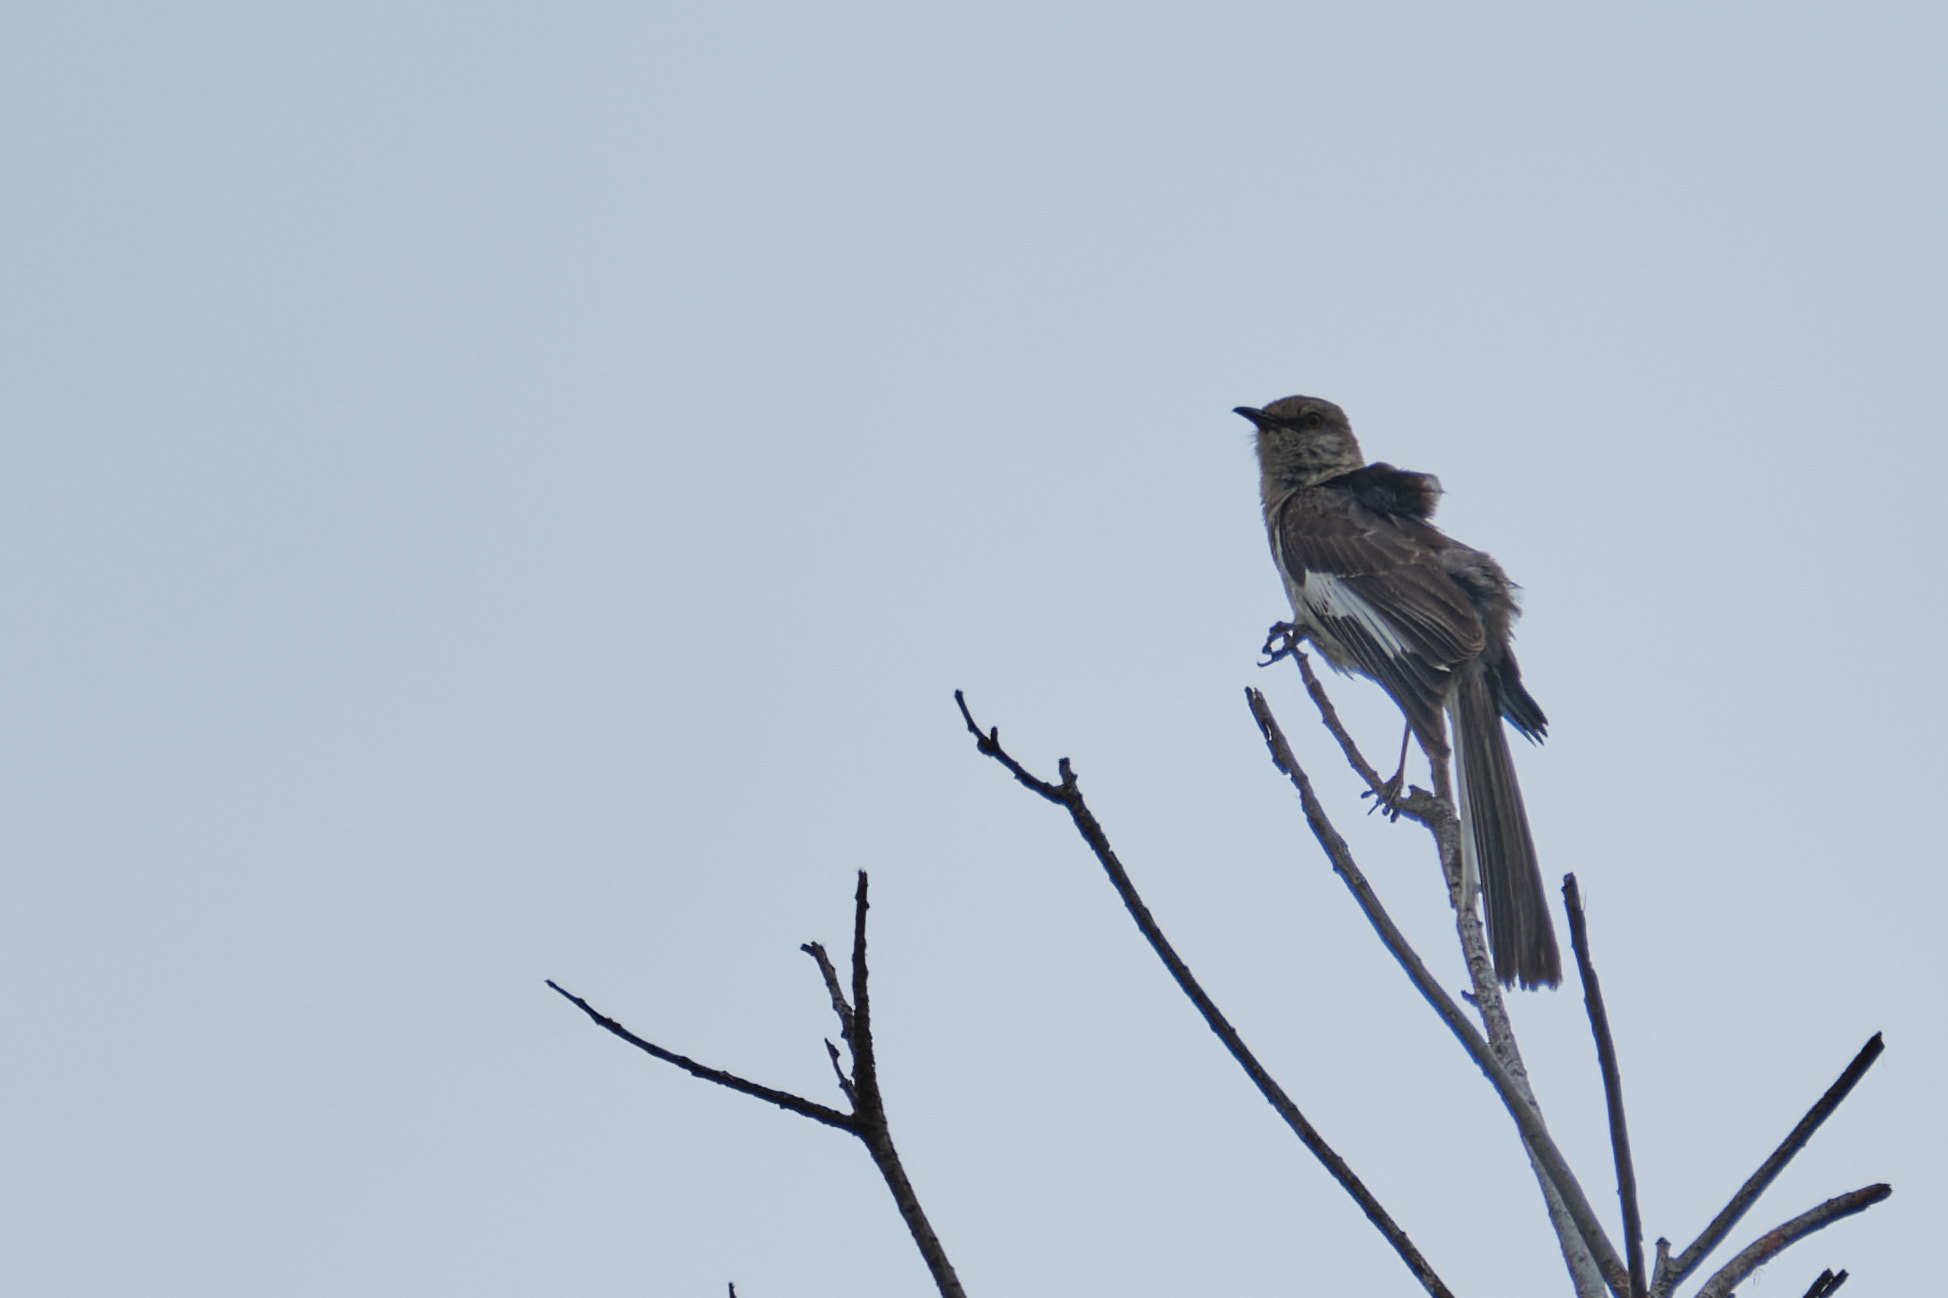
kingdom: Animalia
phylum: Chordata
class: Aves
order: Passeriformes
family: Mimidae
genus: Mimus
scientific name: Mimus polyglottos
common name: Northern mockingbird
